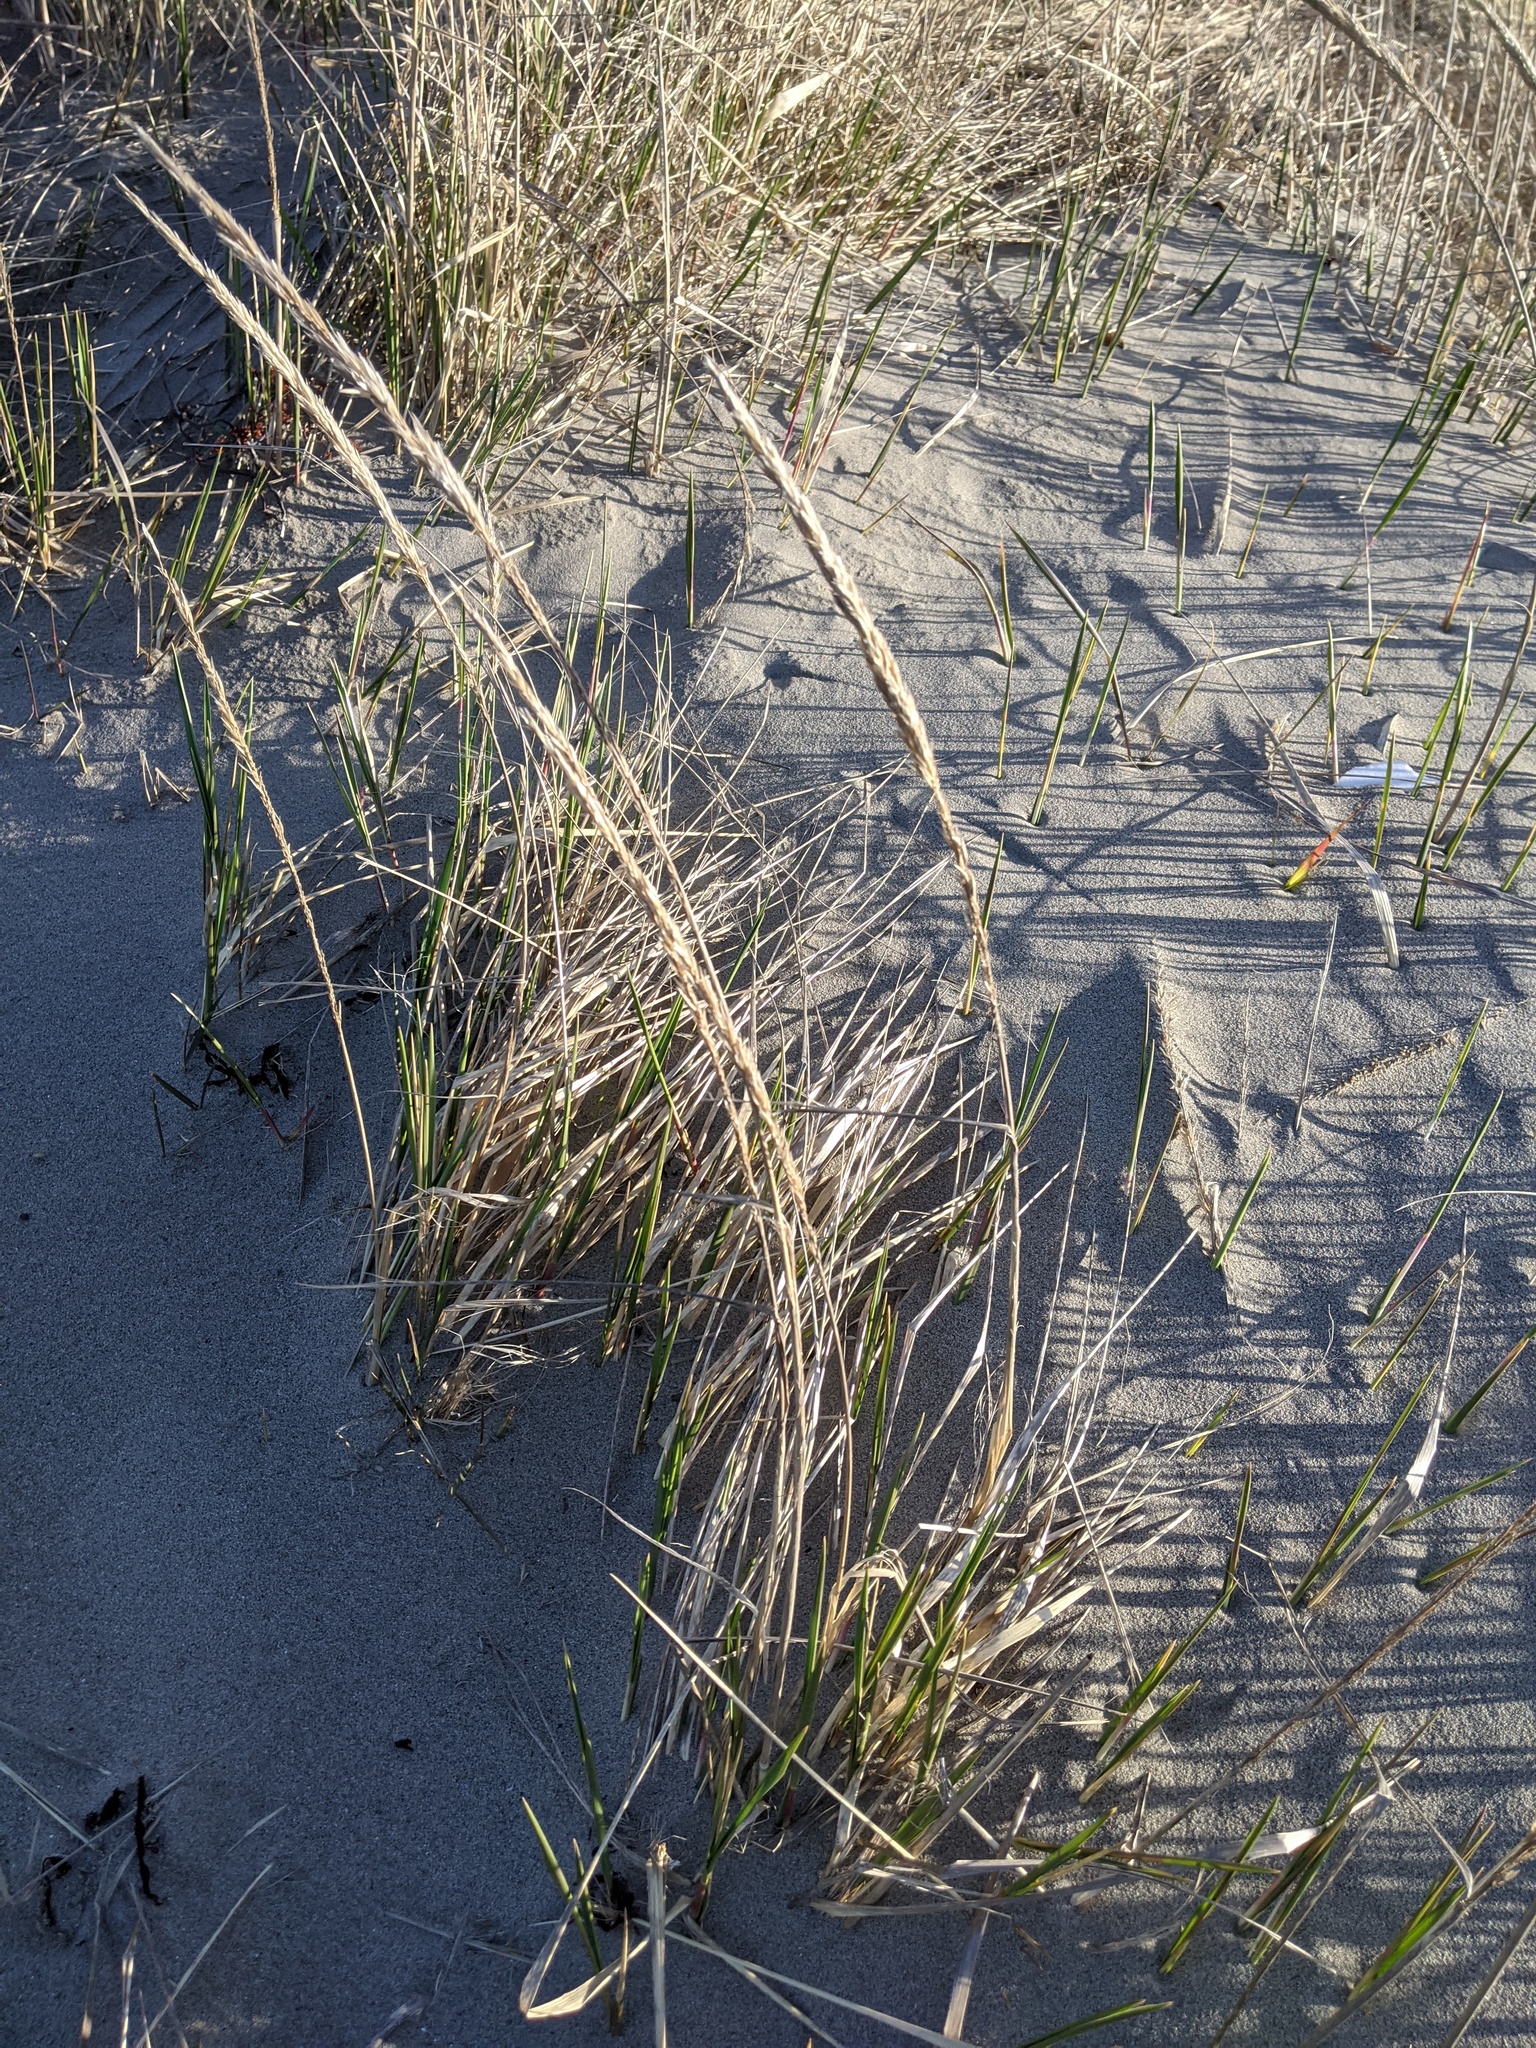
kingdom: Plantae
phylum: Tracheophyta
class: Liliopsida
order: Poales
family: Poaceae
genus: Calamagrostis
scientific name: Calamagrostis breviligulata
